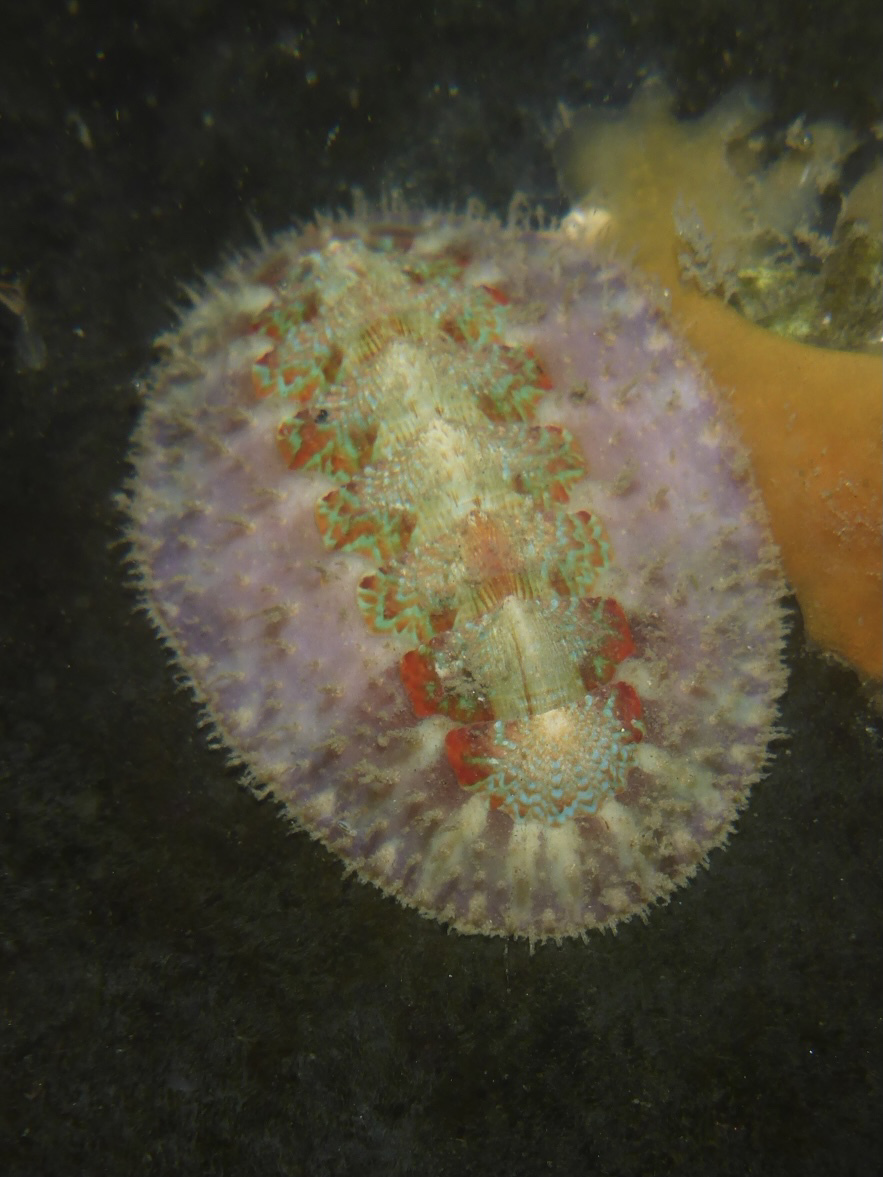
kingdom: Animalia
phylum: Mollusca
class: Polyplacophora
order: Chitonida
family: Mopaliidae
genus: Mopalia
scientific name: Mopalia spectabilis
